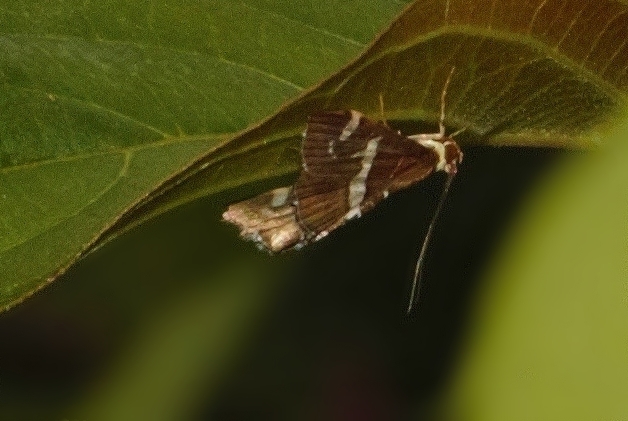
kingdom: Animalia
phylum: Arthropoda
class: Insecta
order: Lepidoptera
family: Crambidae
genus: Spoladea
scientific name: Spoladea recurvalis
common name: Beet webworm moth
